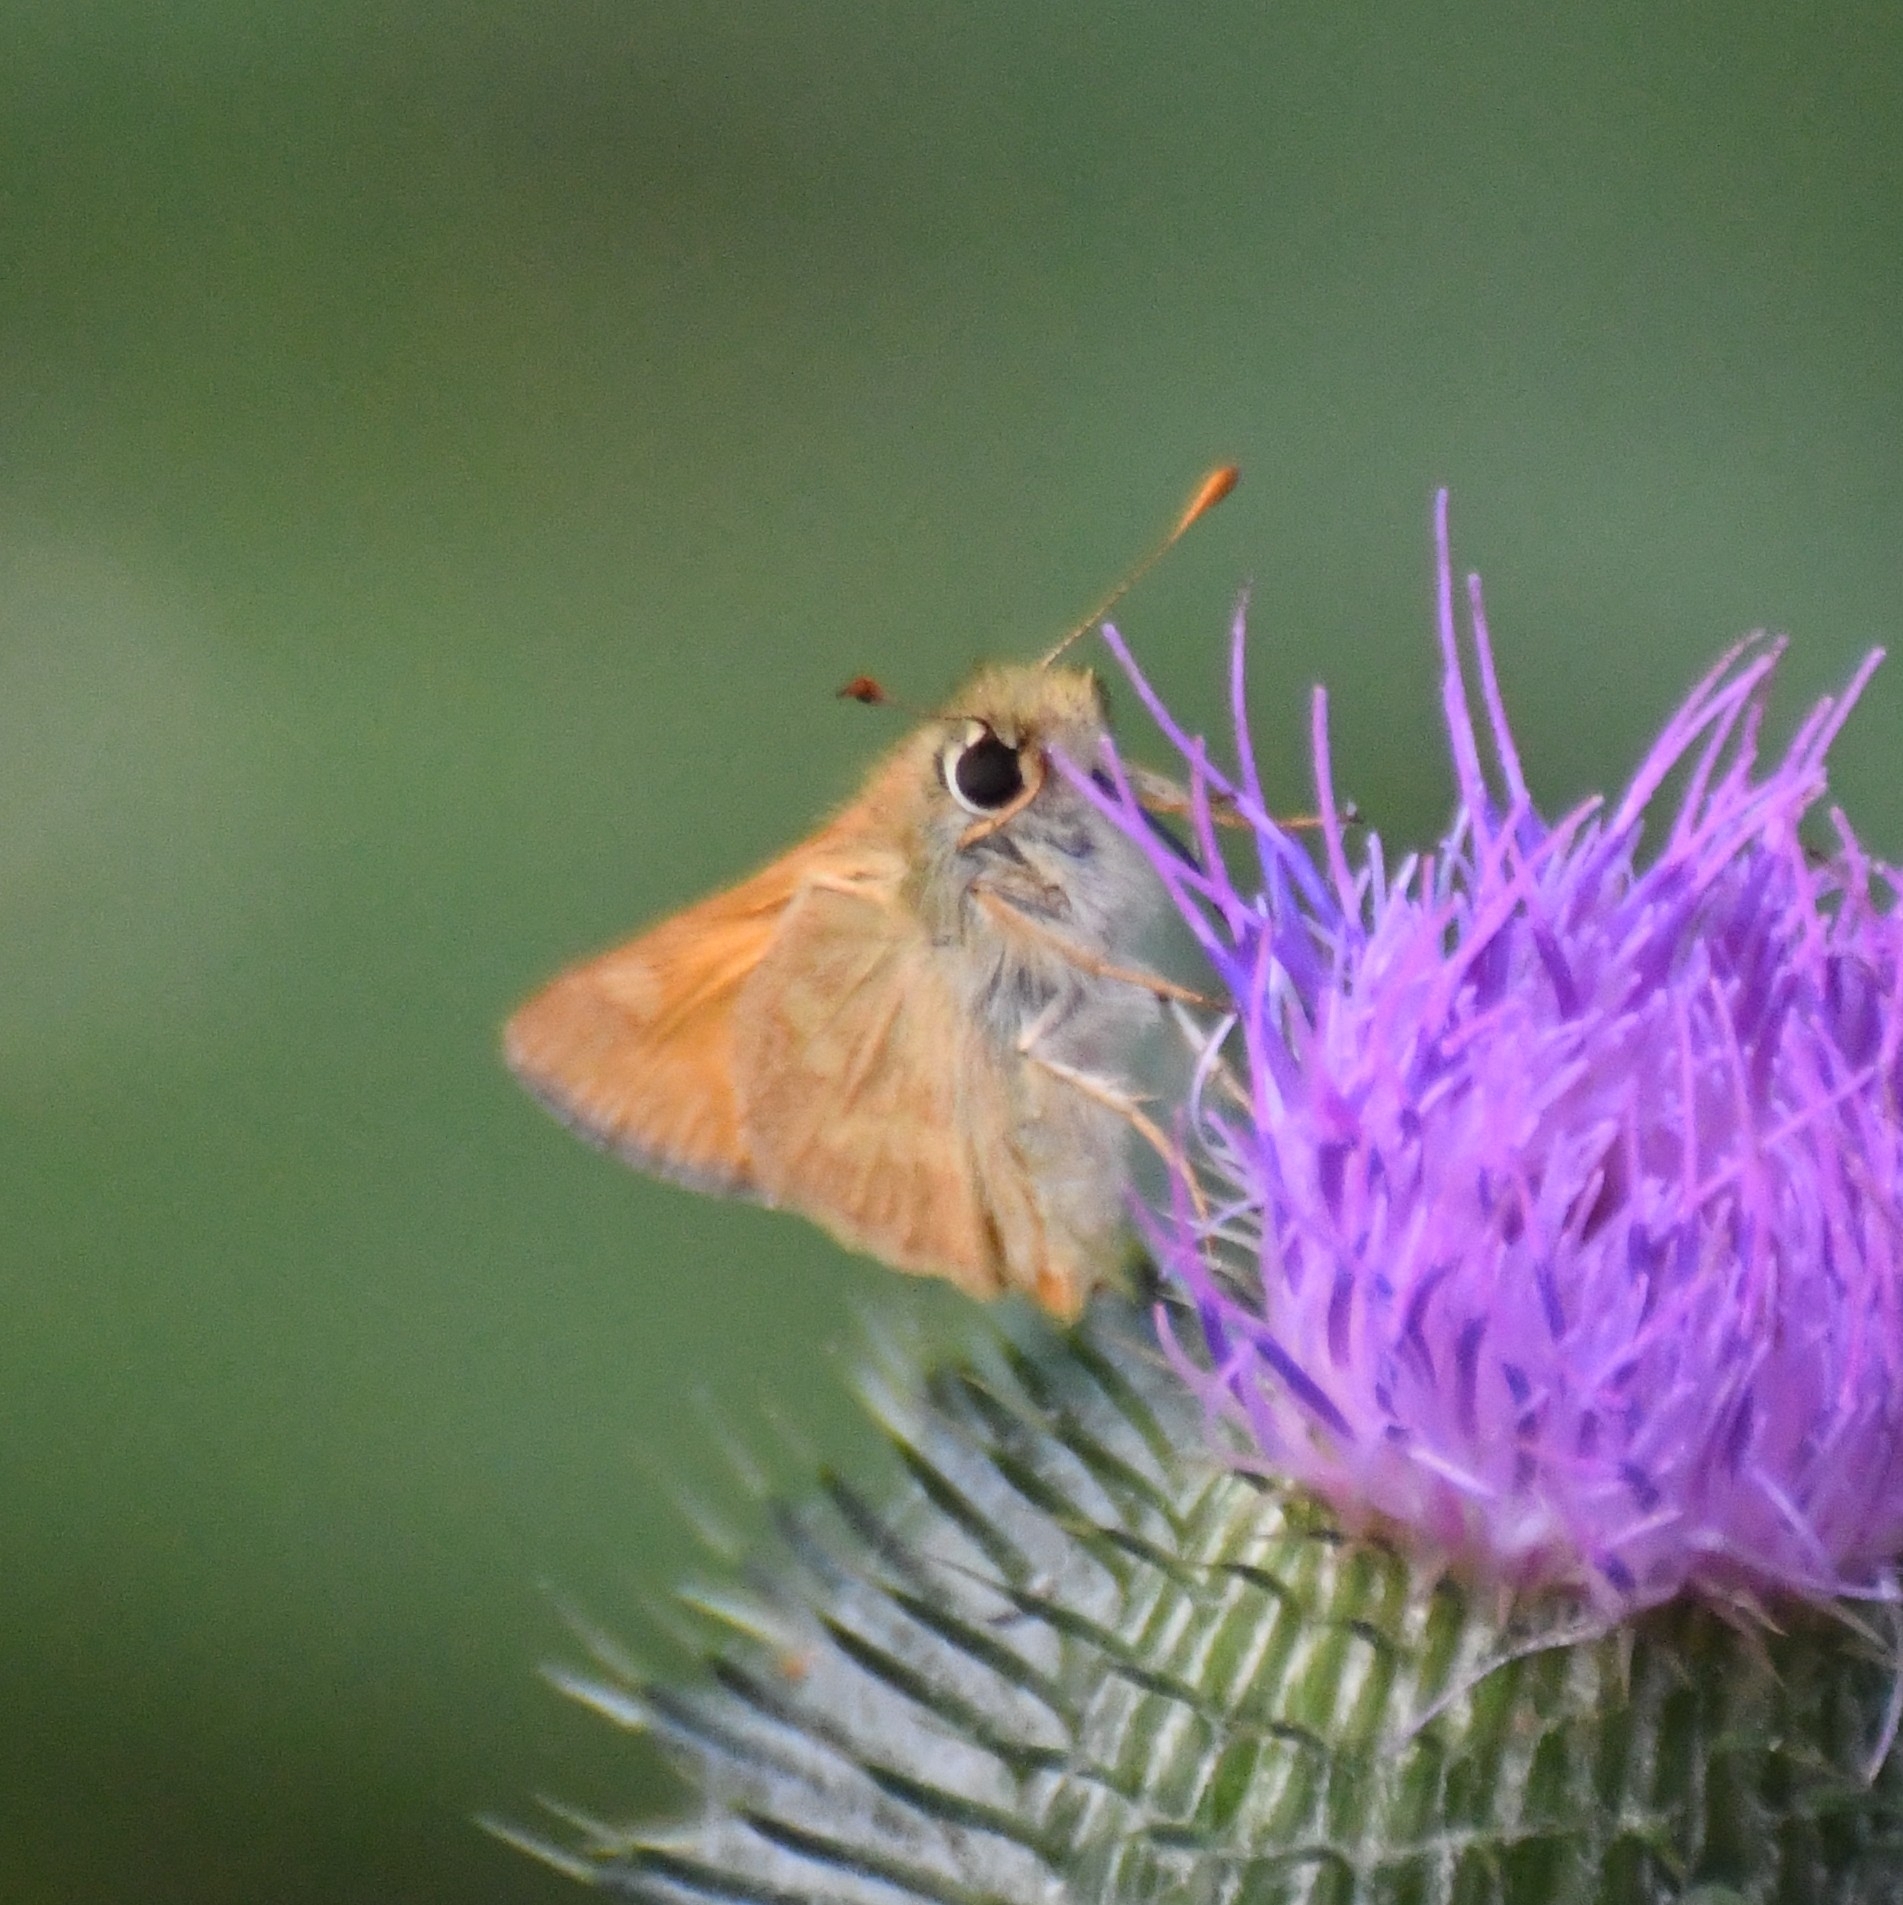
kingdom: Animalia
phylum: Arthropoda
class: Insecta
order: Lepidoptera
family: Hesperiidae
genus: Ochlodes
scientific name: Ochlodes sylvanoides
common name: Woodland skipper
